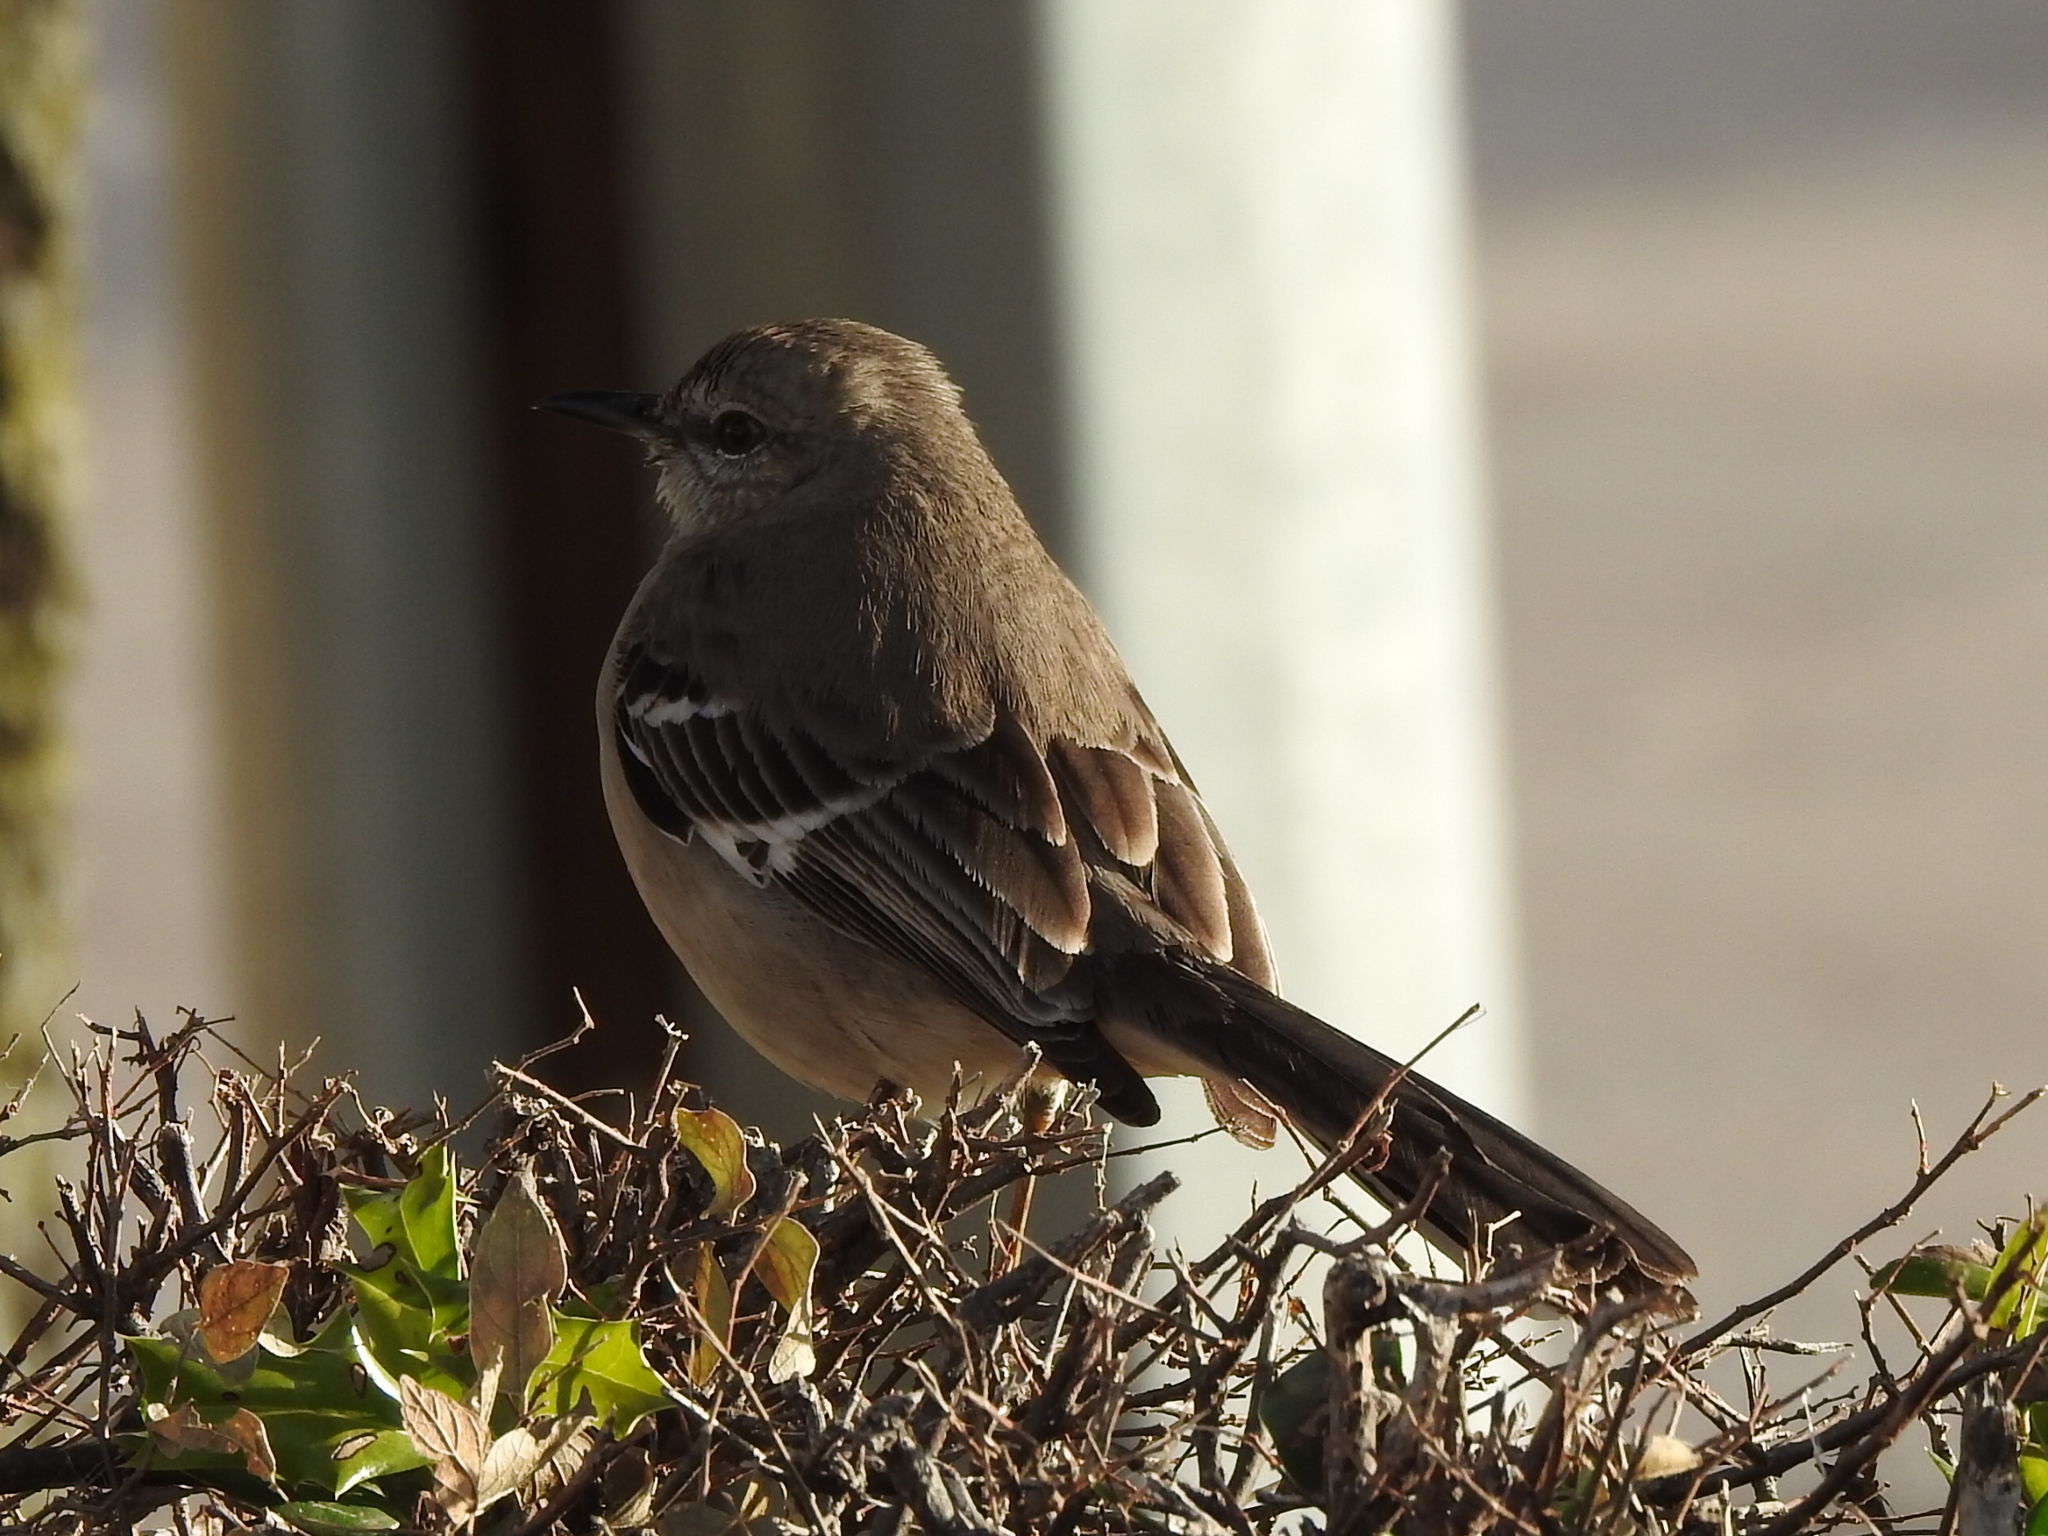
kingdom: Animalia
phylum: Chordata
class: Aves
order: Passeriformes
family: Mimidae
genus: Mimus
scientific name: Mimus polyglottos
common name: Northern mockingbird
